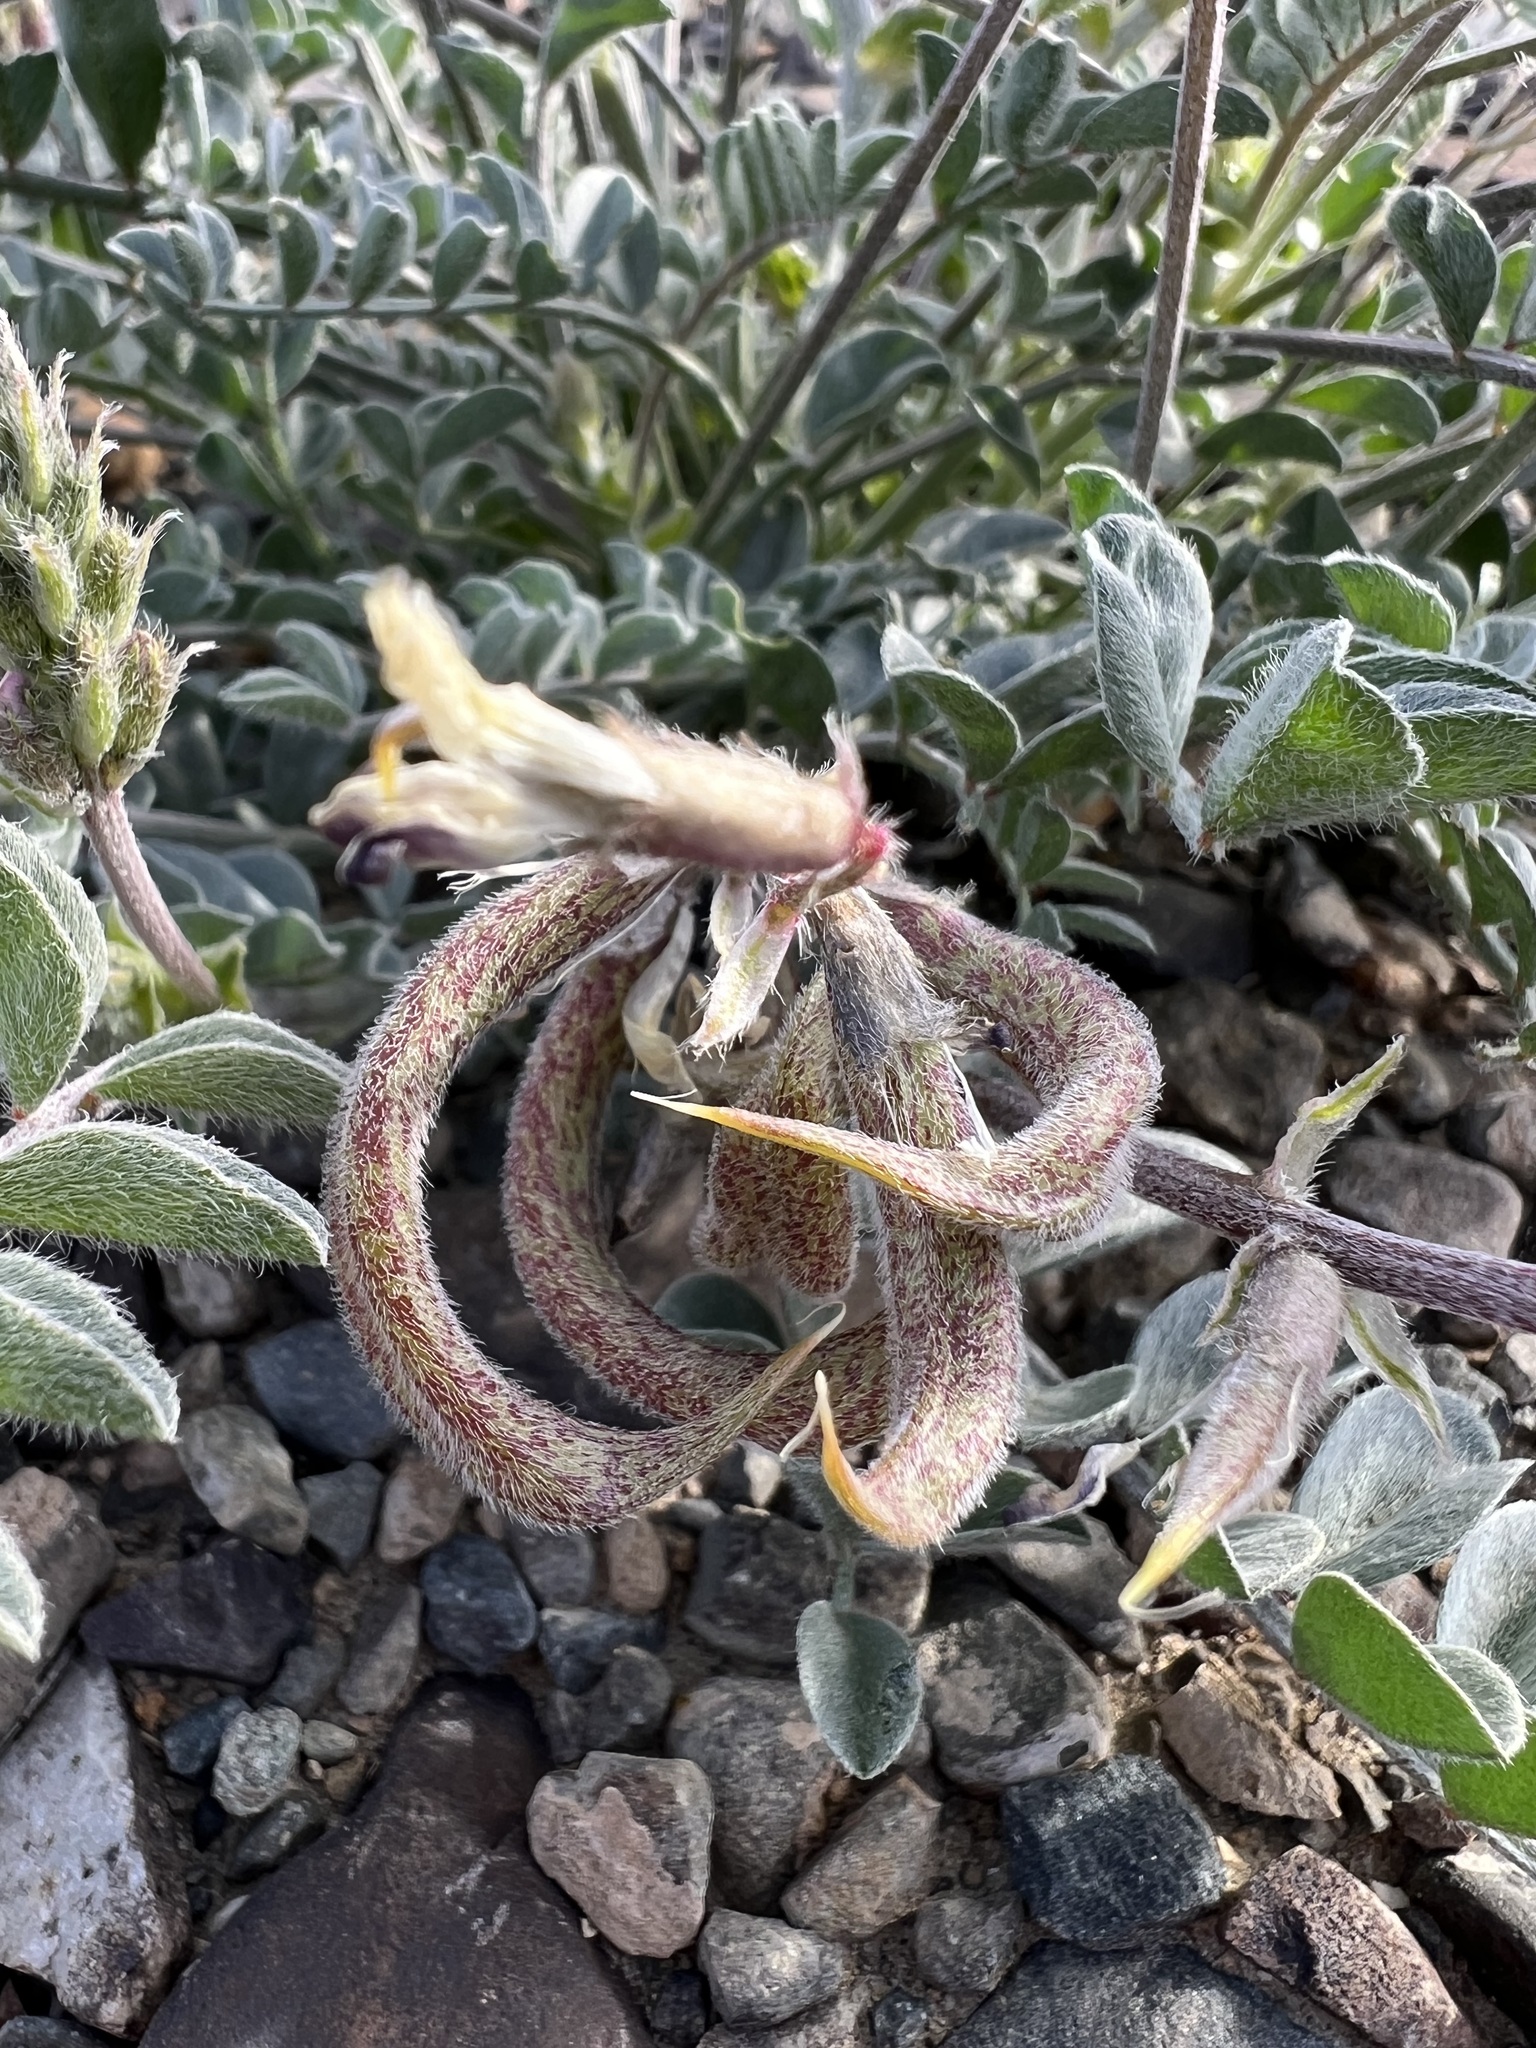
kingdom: Plantae
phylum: Tracheophyta
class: Magnoliopsida
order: Fabales
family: Fabaceae
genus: Astragalus
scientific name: Astragalus layneae
